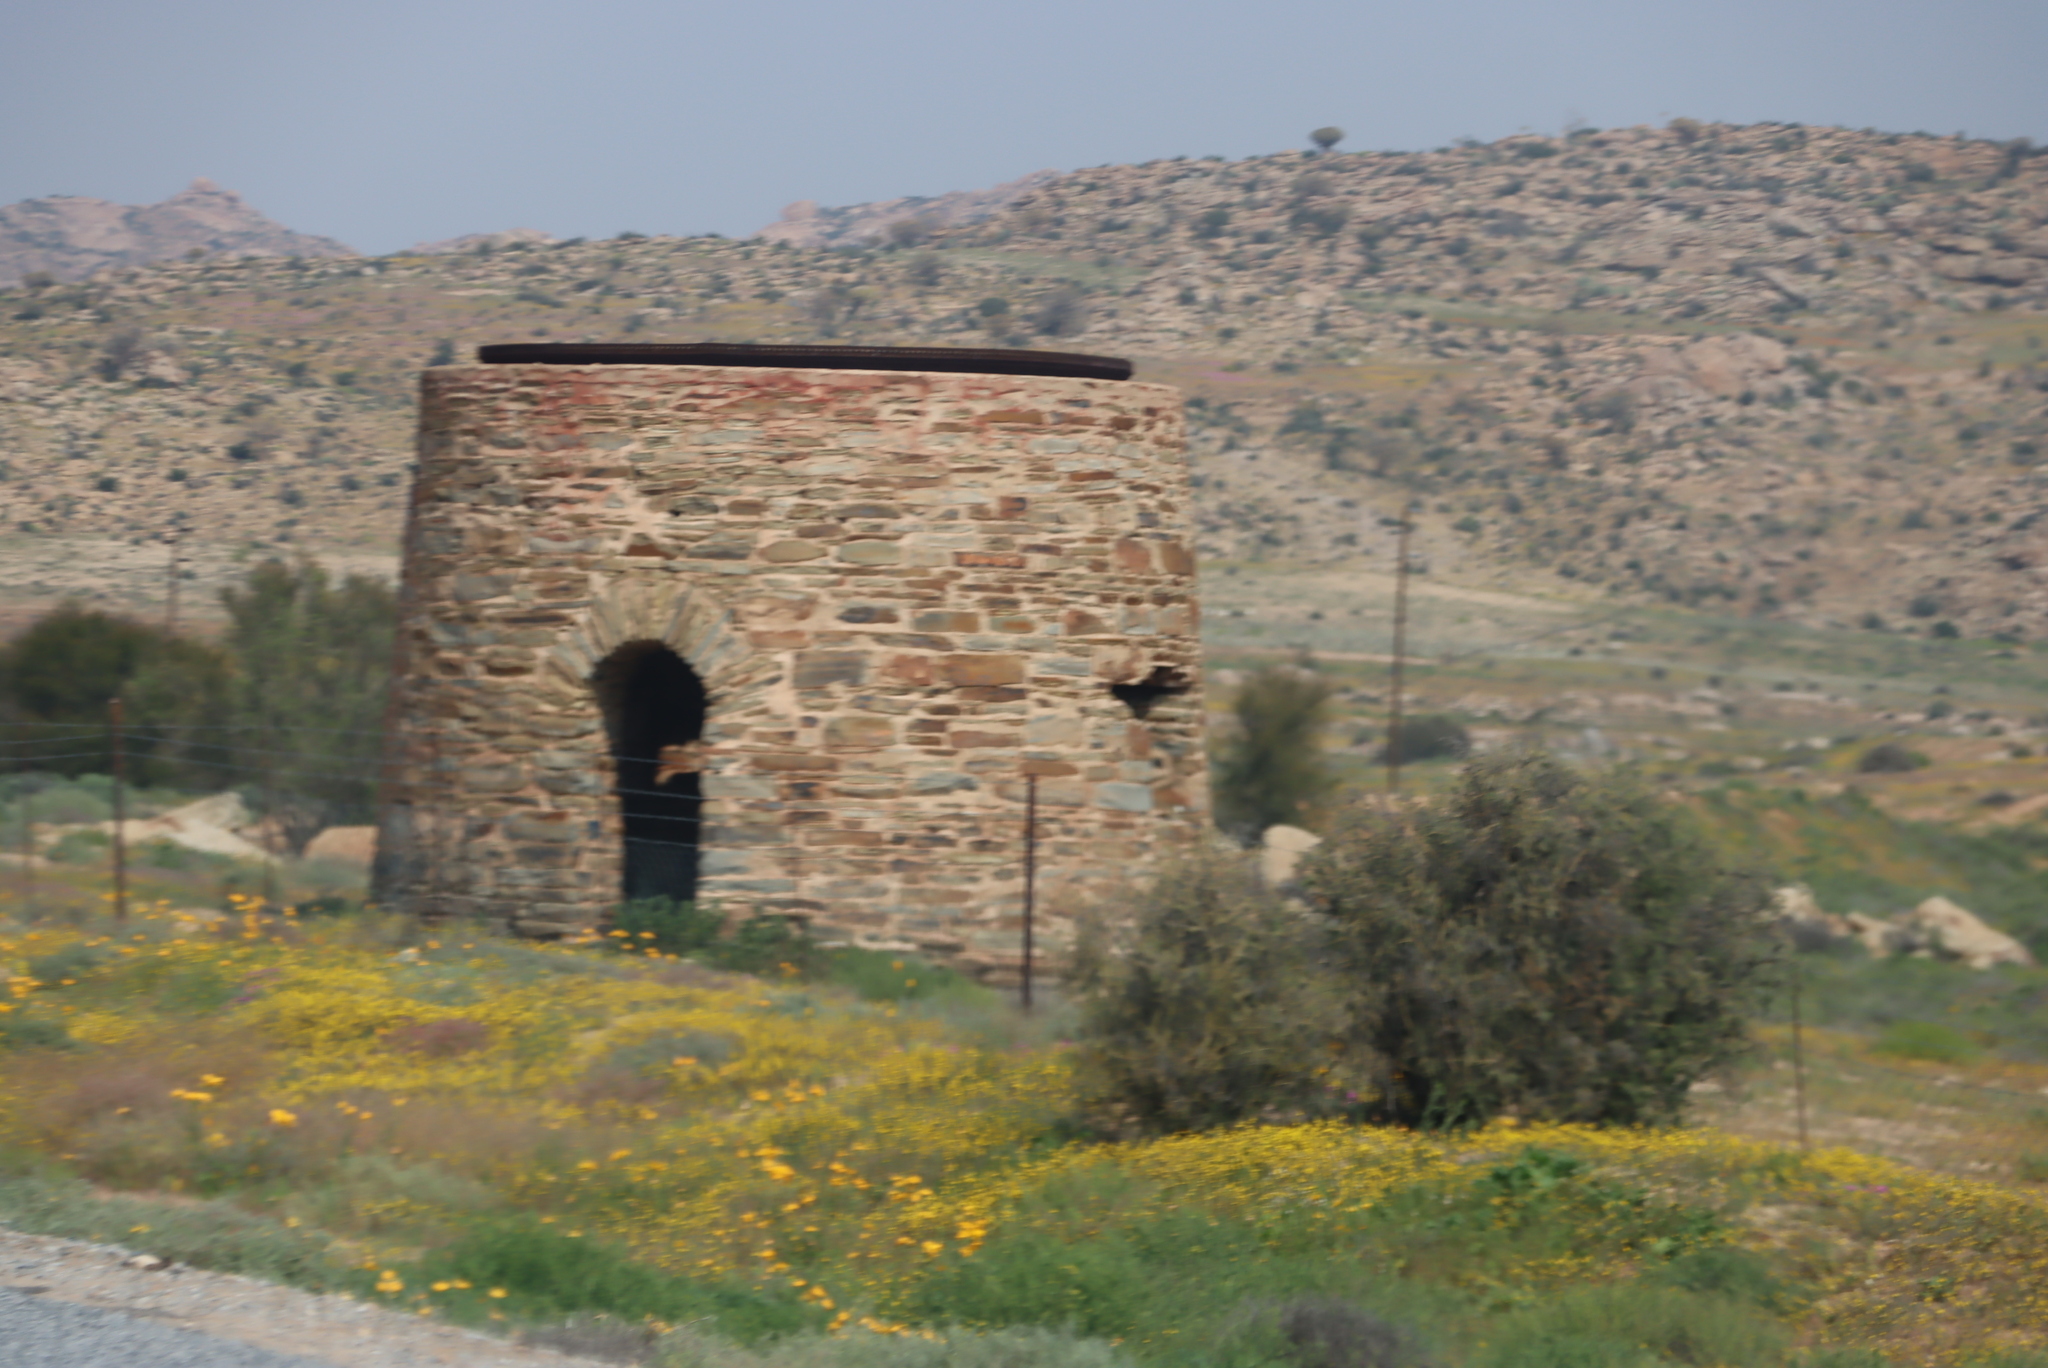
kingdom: Plantae
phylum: Tracheophyta
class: Liliopsida
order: Asparagales
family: Asphodelaceae
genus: Aloidendron
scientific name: Aloidendron dichotomum
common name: Quiver tree
